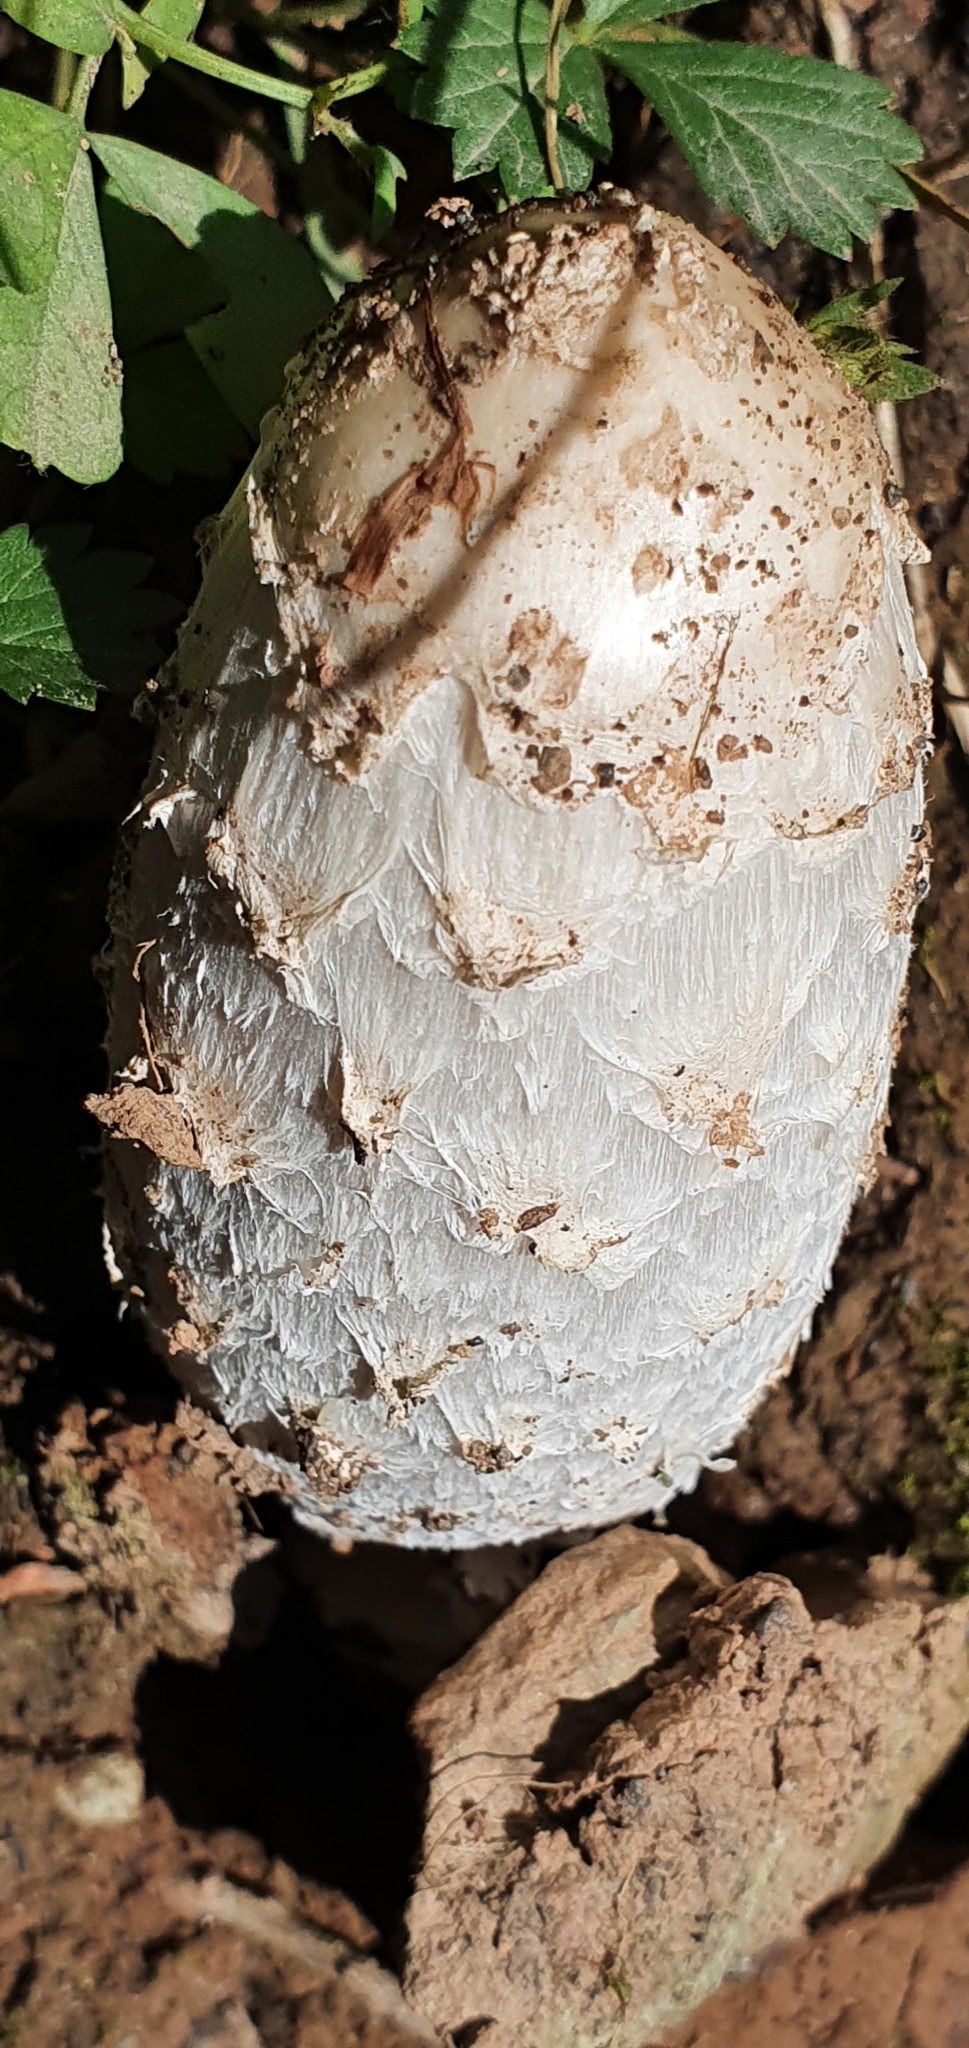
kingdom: Fungi
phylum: Basidiomycota
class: Agaricomycetes
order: Agaricales
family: Agaricaceae
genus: Coprinus
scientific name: Coprinus comatus
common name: Lawyer's wig
